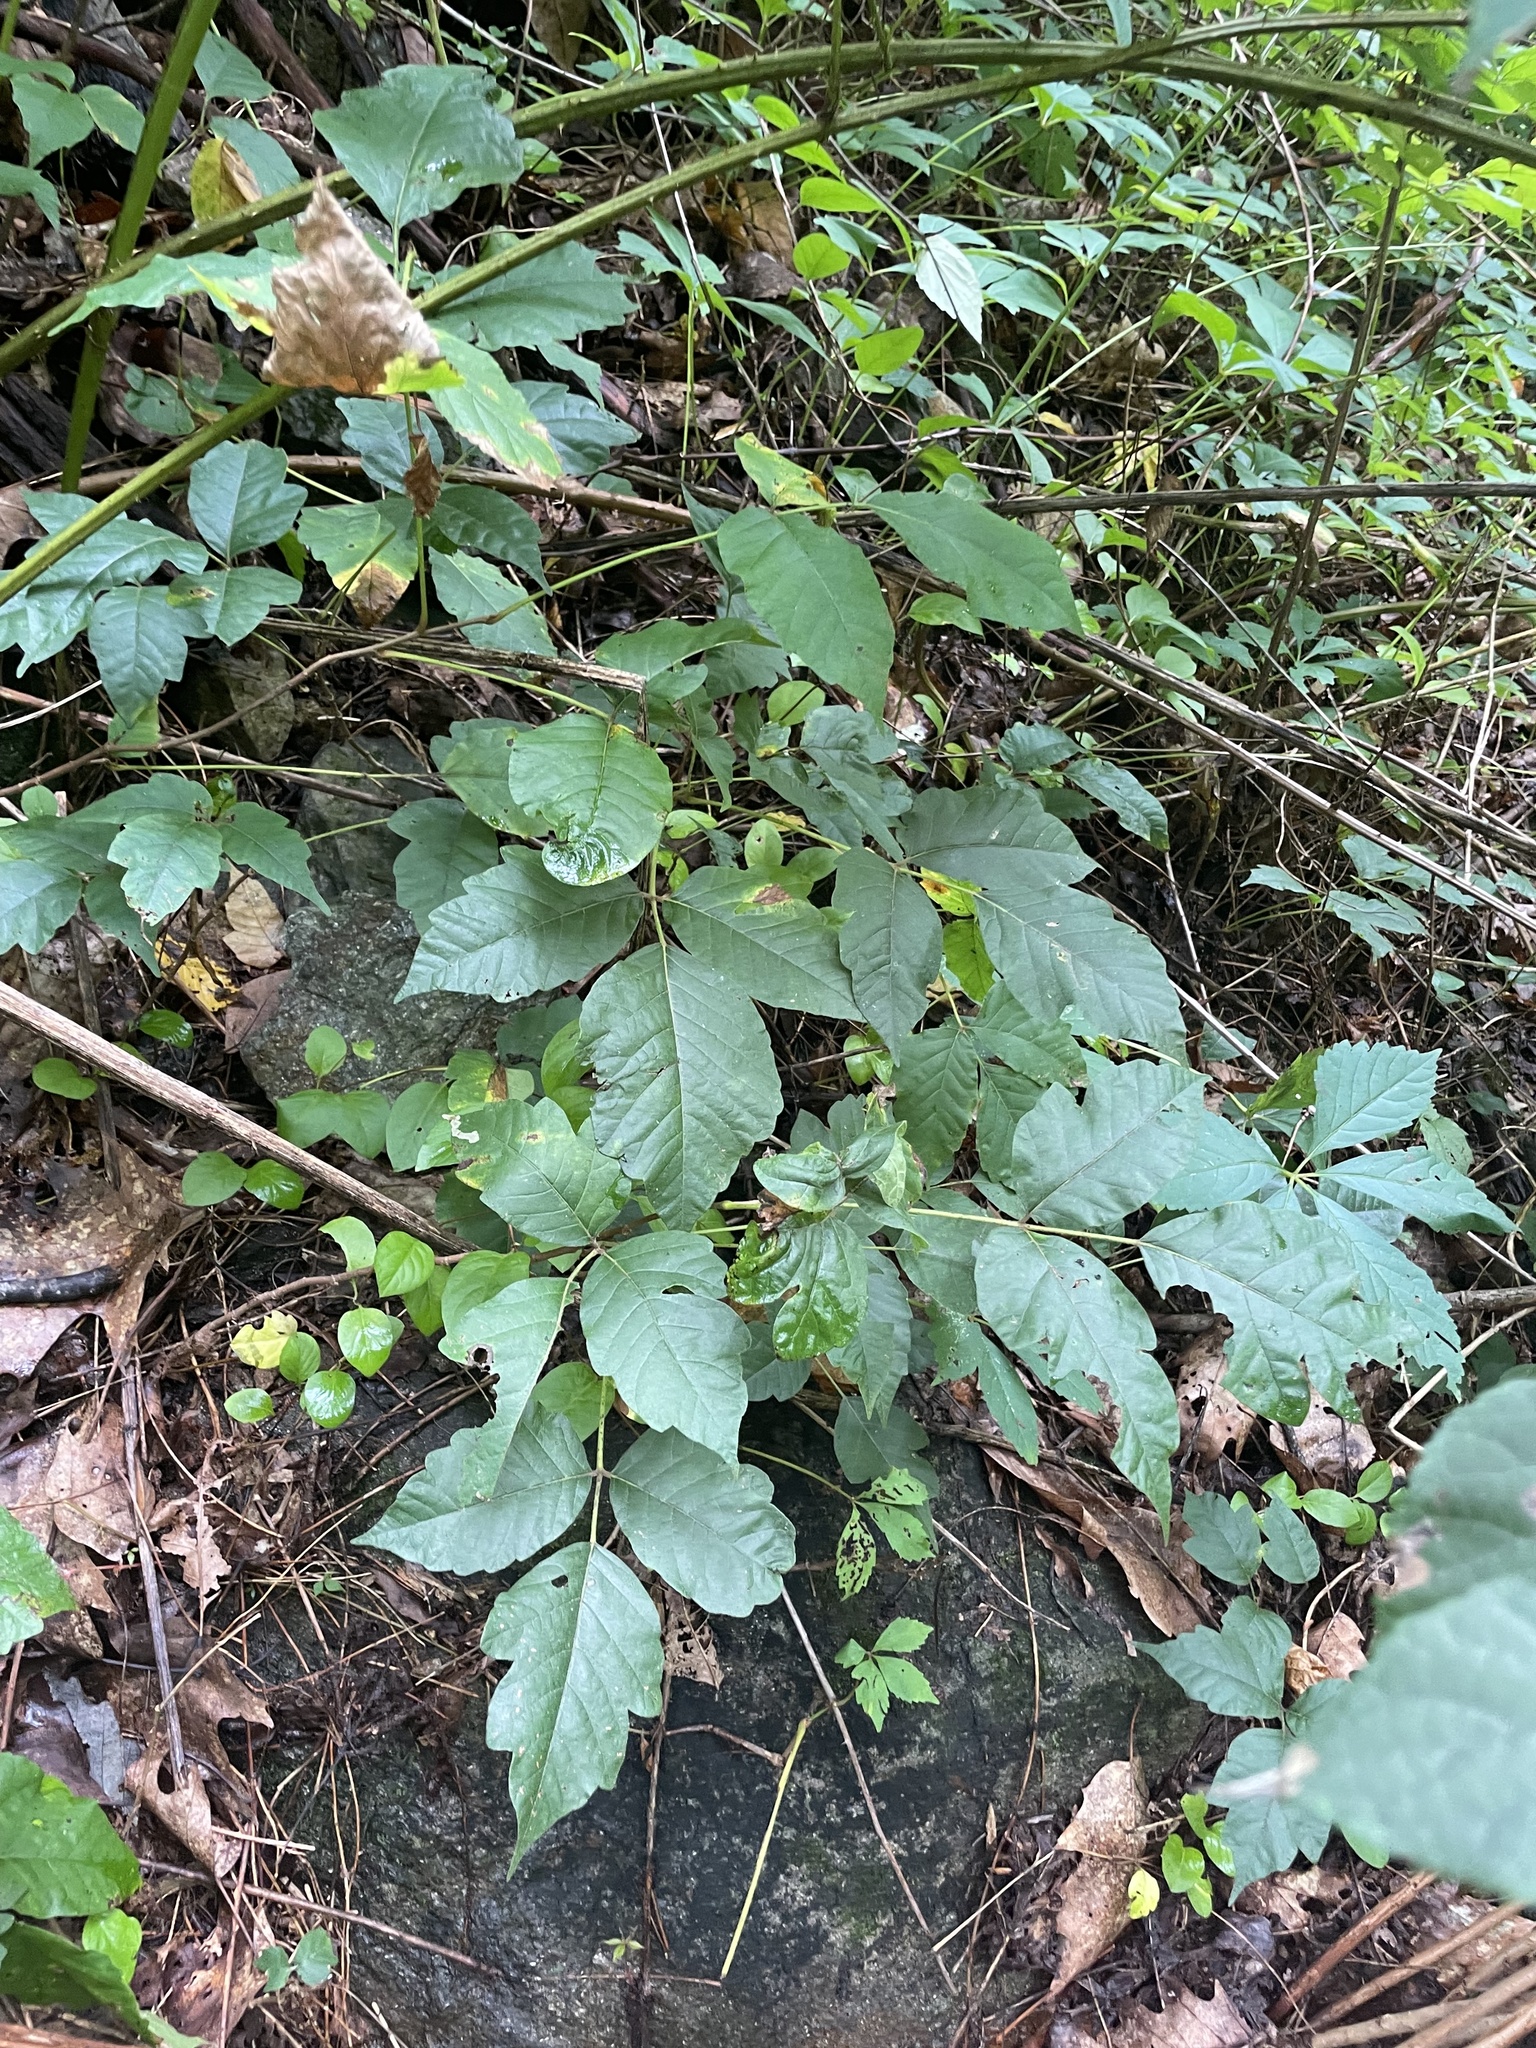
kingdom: Plantae
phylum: Tracheophyta
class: Magnoliopsida
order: Sapindales
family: Anacardiaceae
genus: Toxicodendron
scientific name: Toxicodendron radicans
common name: Poison ivy
